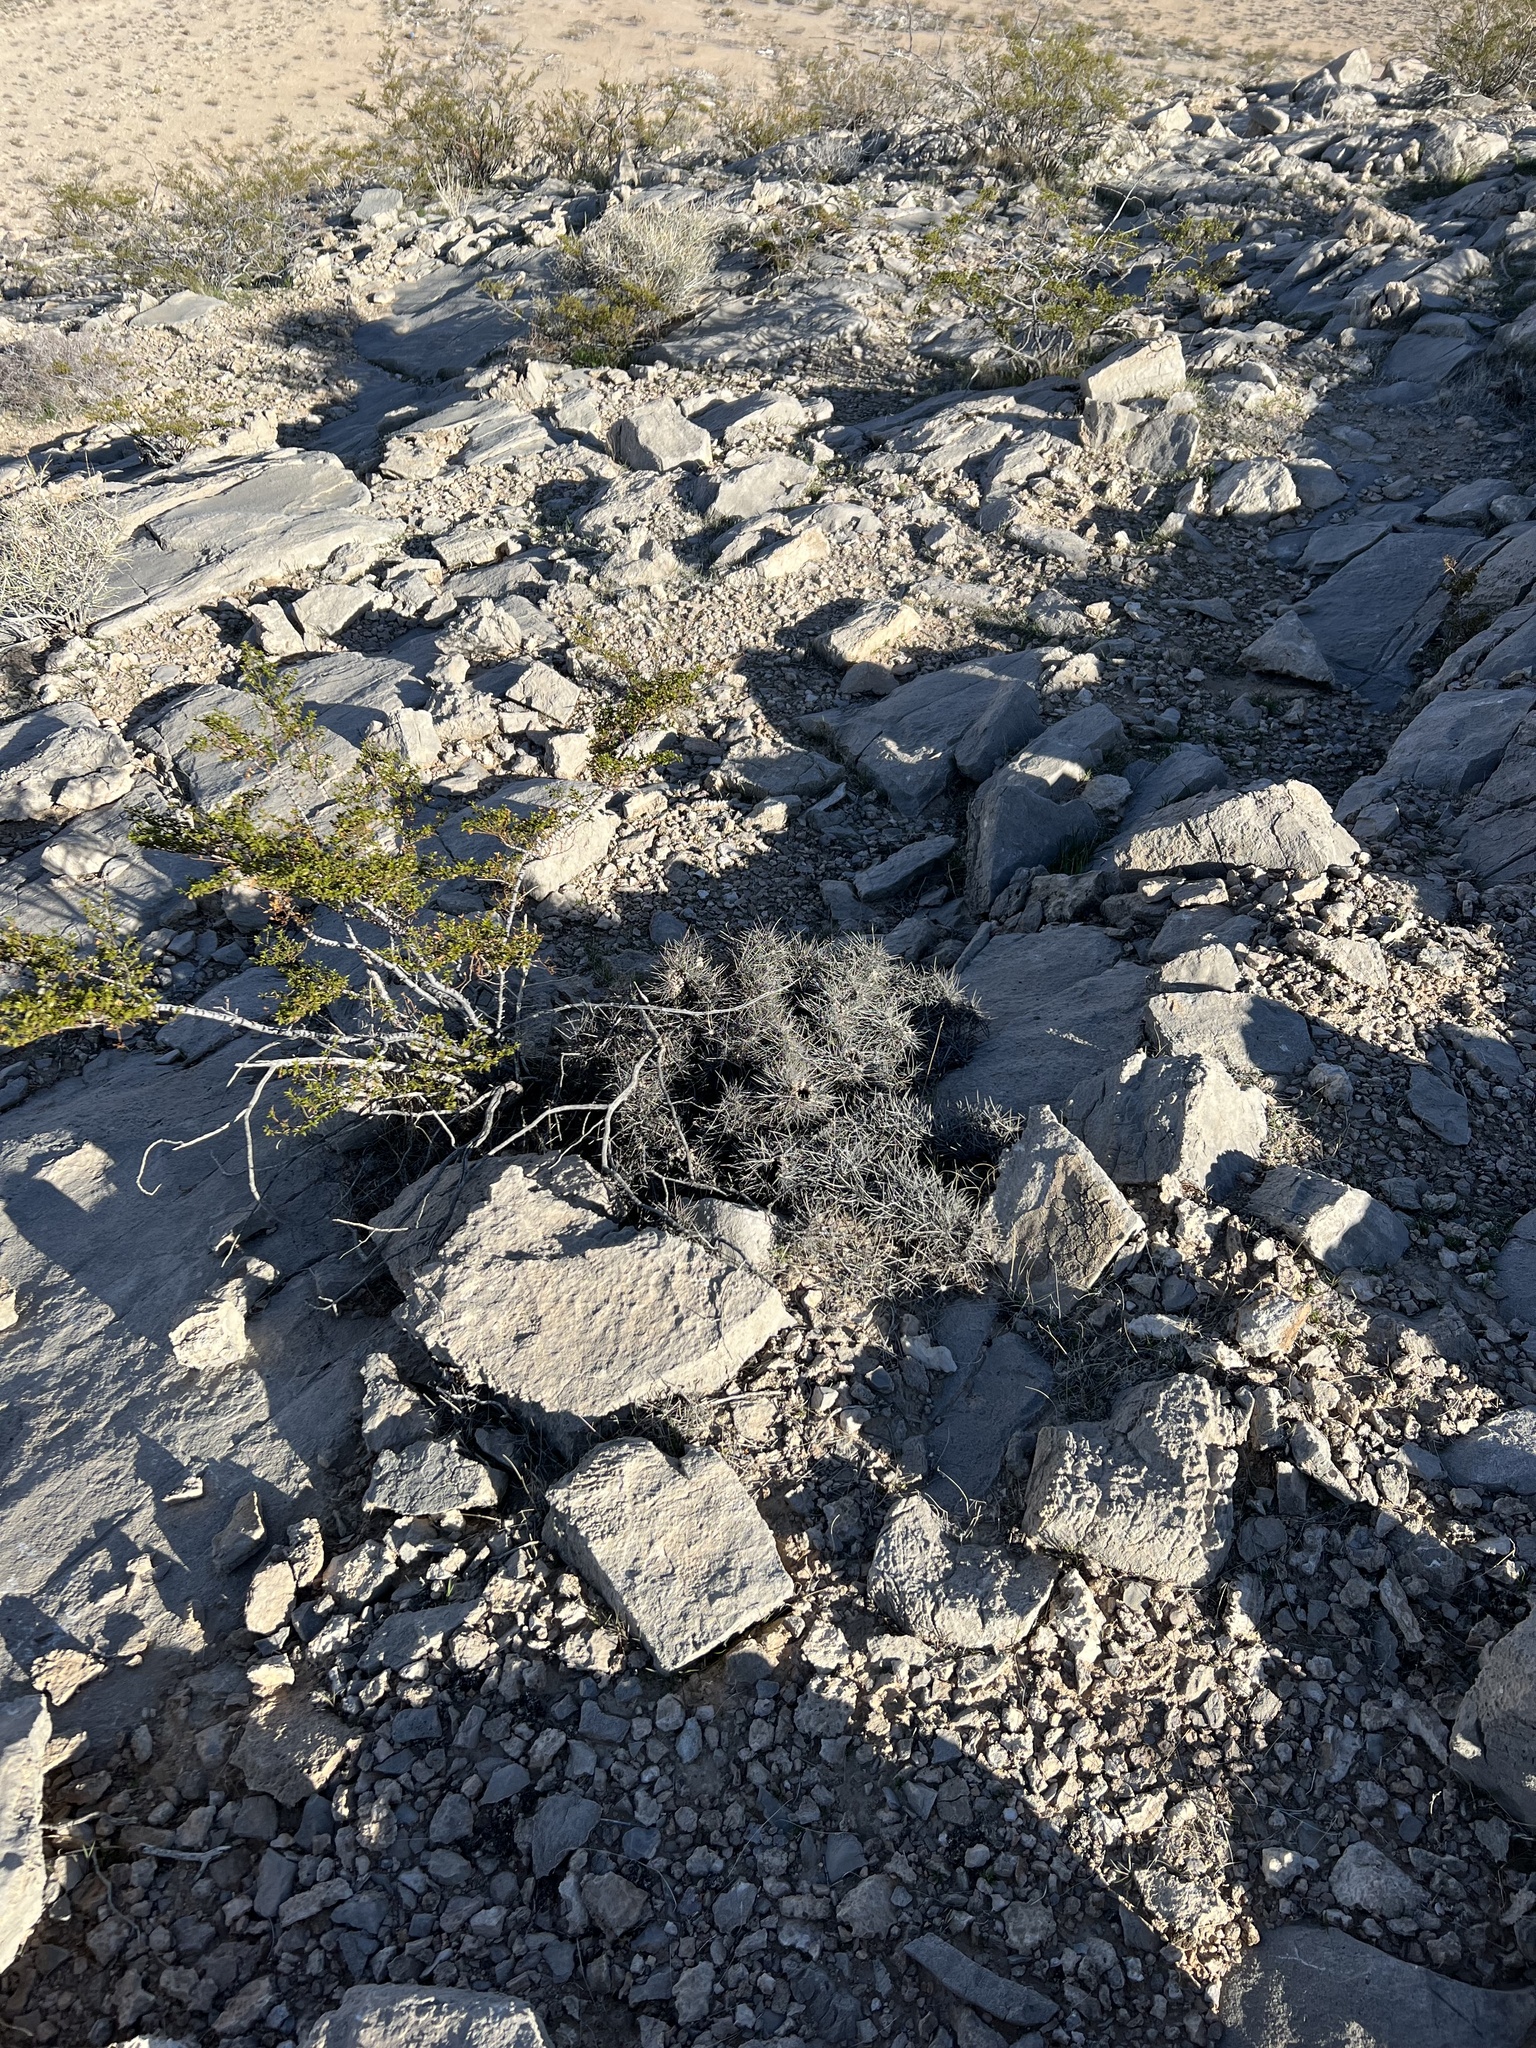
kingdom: Plantae
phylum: Tracheophyta
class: Gnetopsida
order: Ephedrales
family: Ephedraceae
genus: Ephedra
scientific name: Ephedra nevadensis
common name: Gray ephedra
